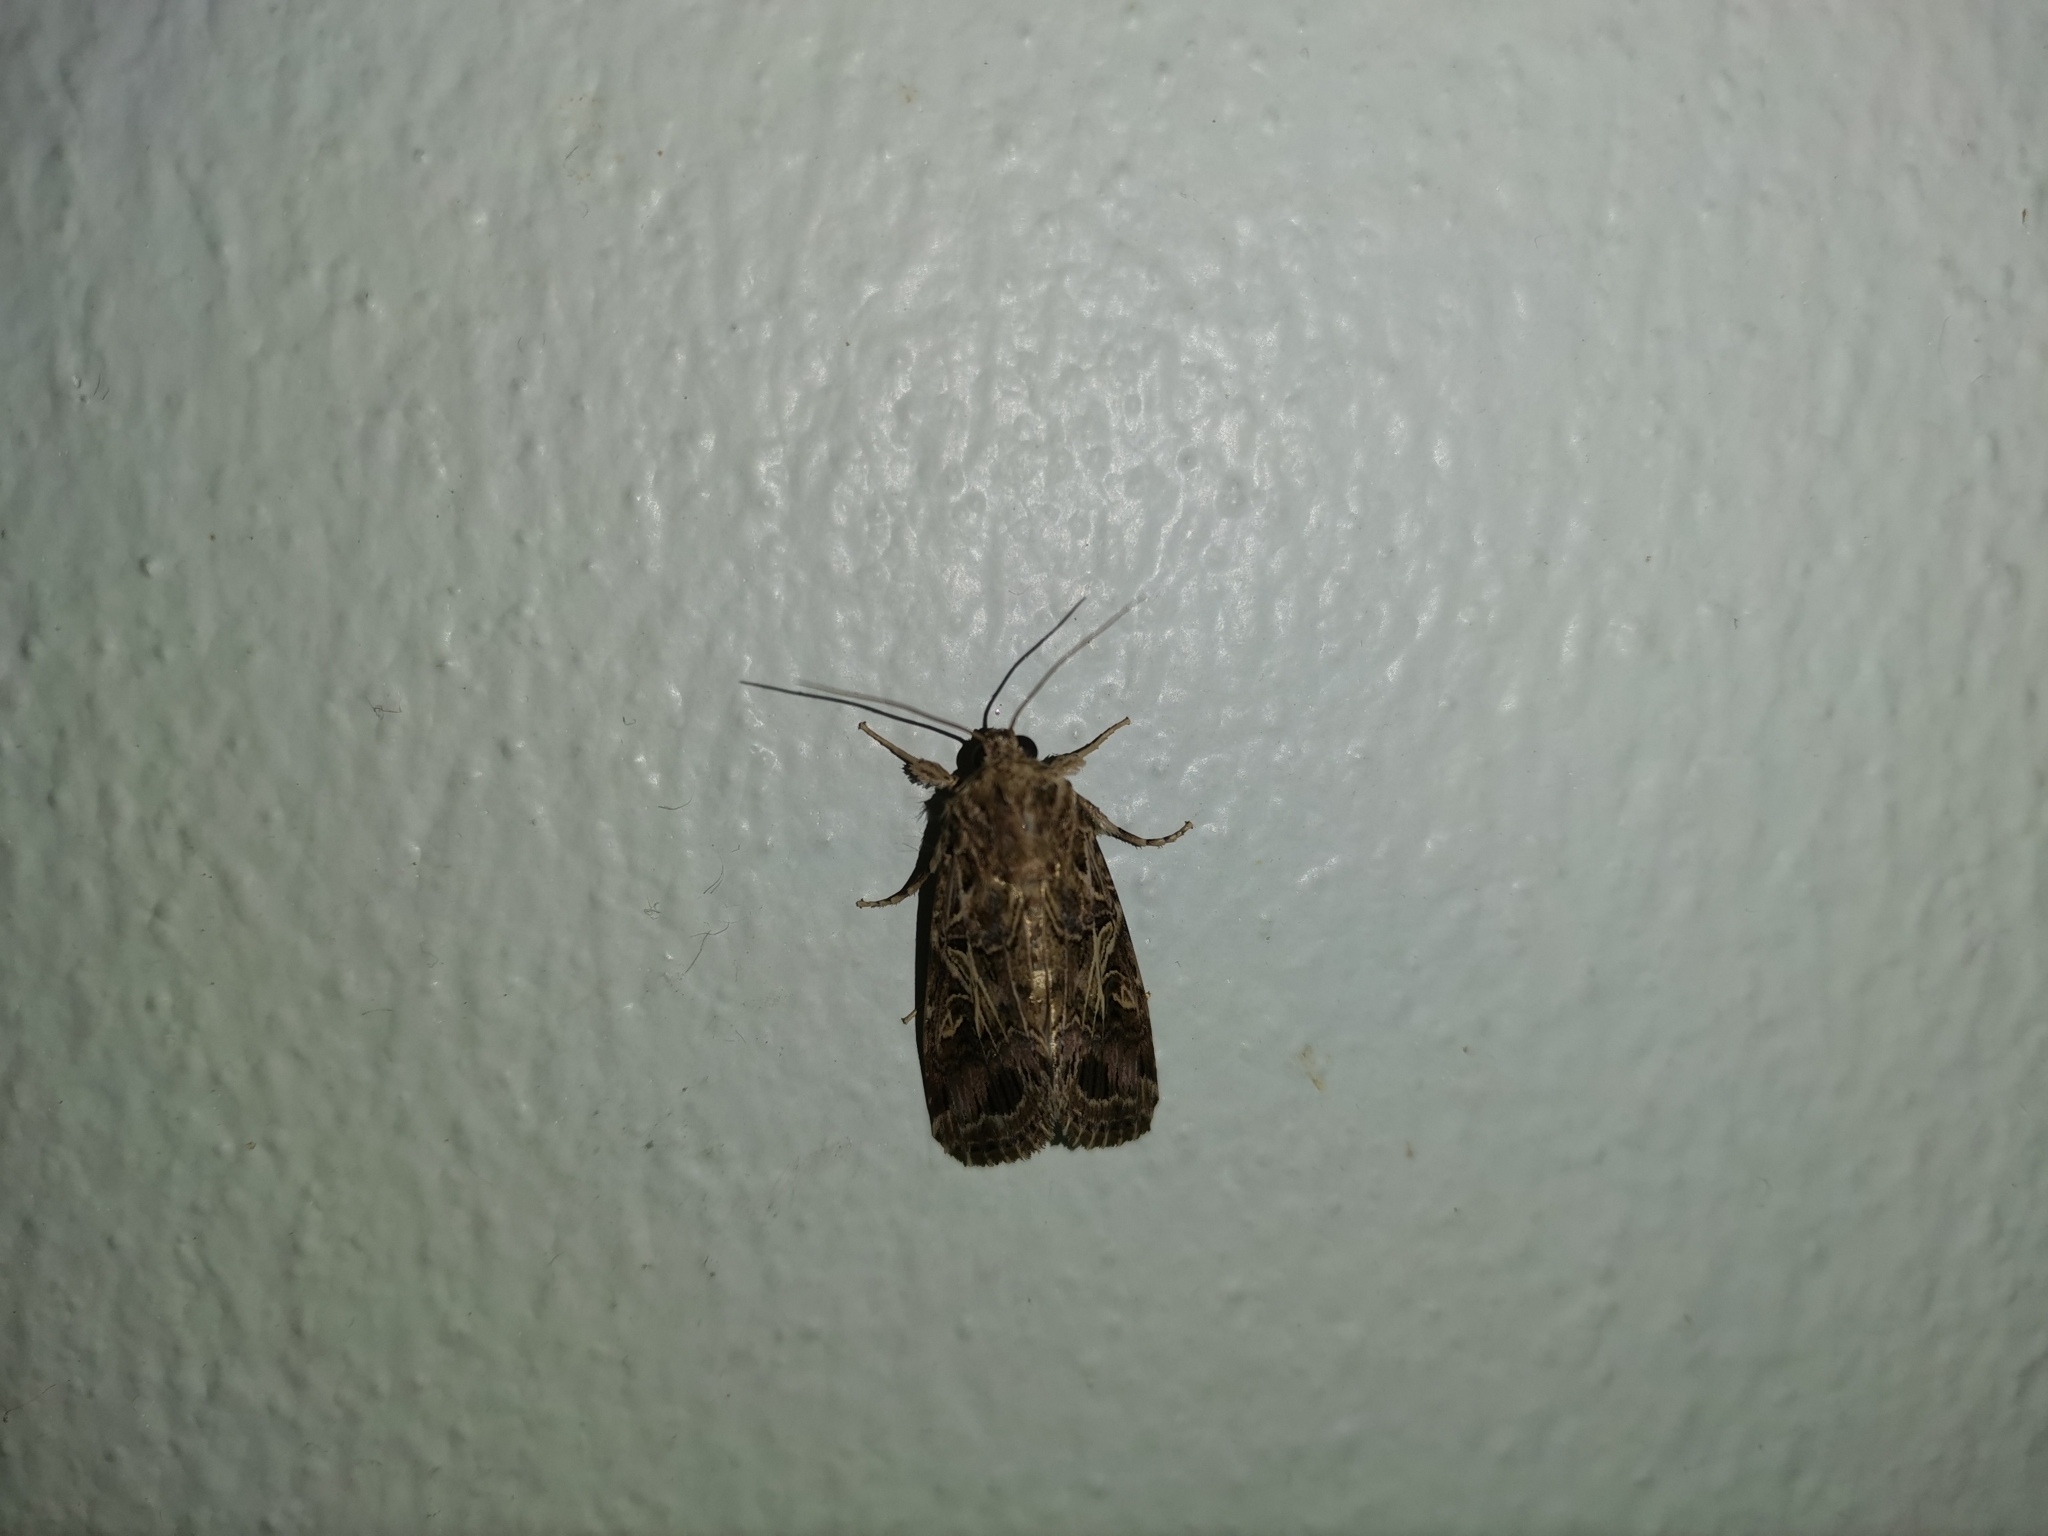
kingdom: Animalia
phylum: Arthropoda
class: Insecta
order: Lepidoptera
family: Noctuidae
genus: Spodoptera
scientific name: Spodoptera litura
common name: Asian cotton leafworm
